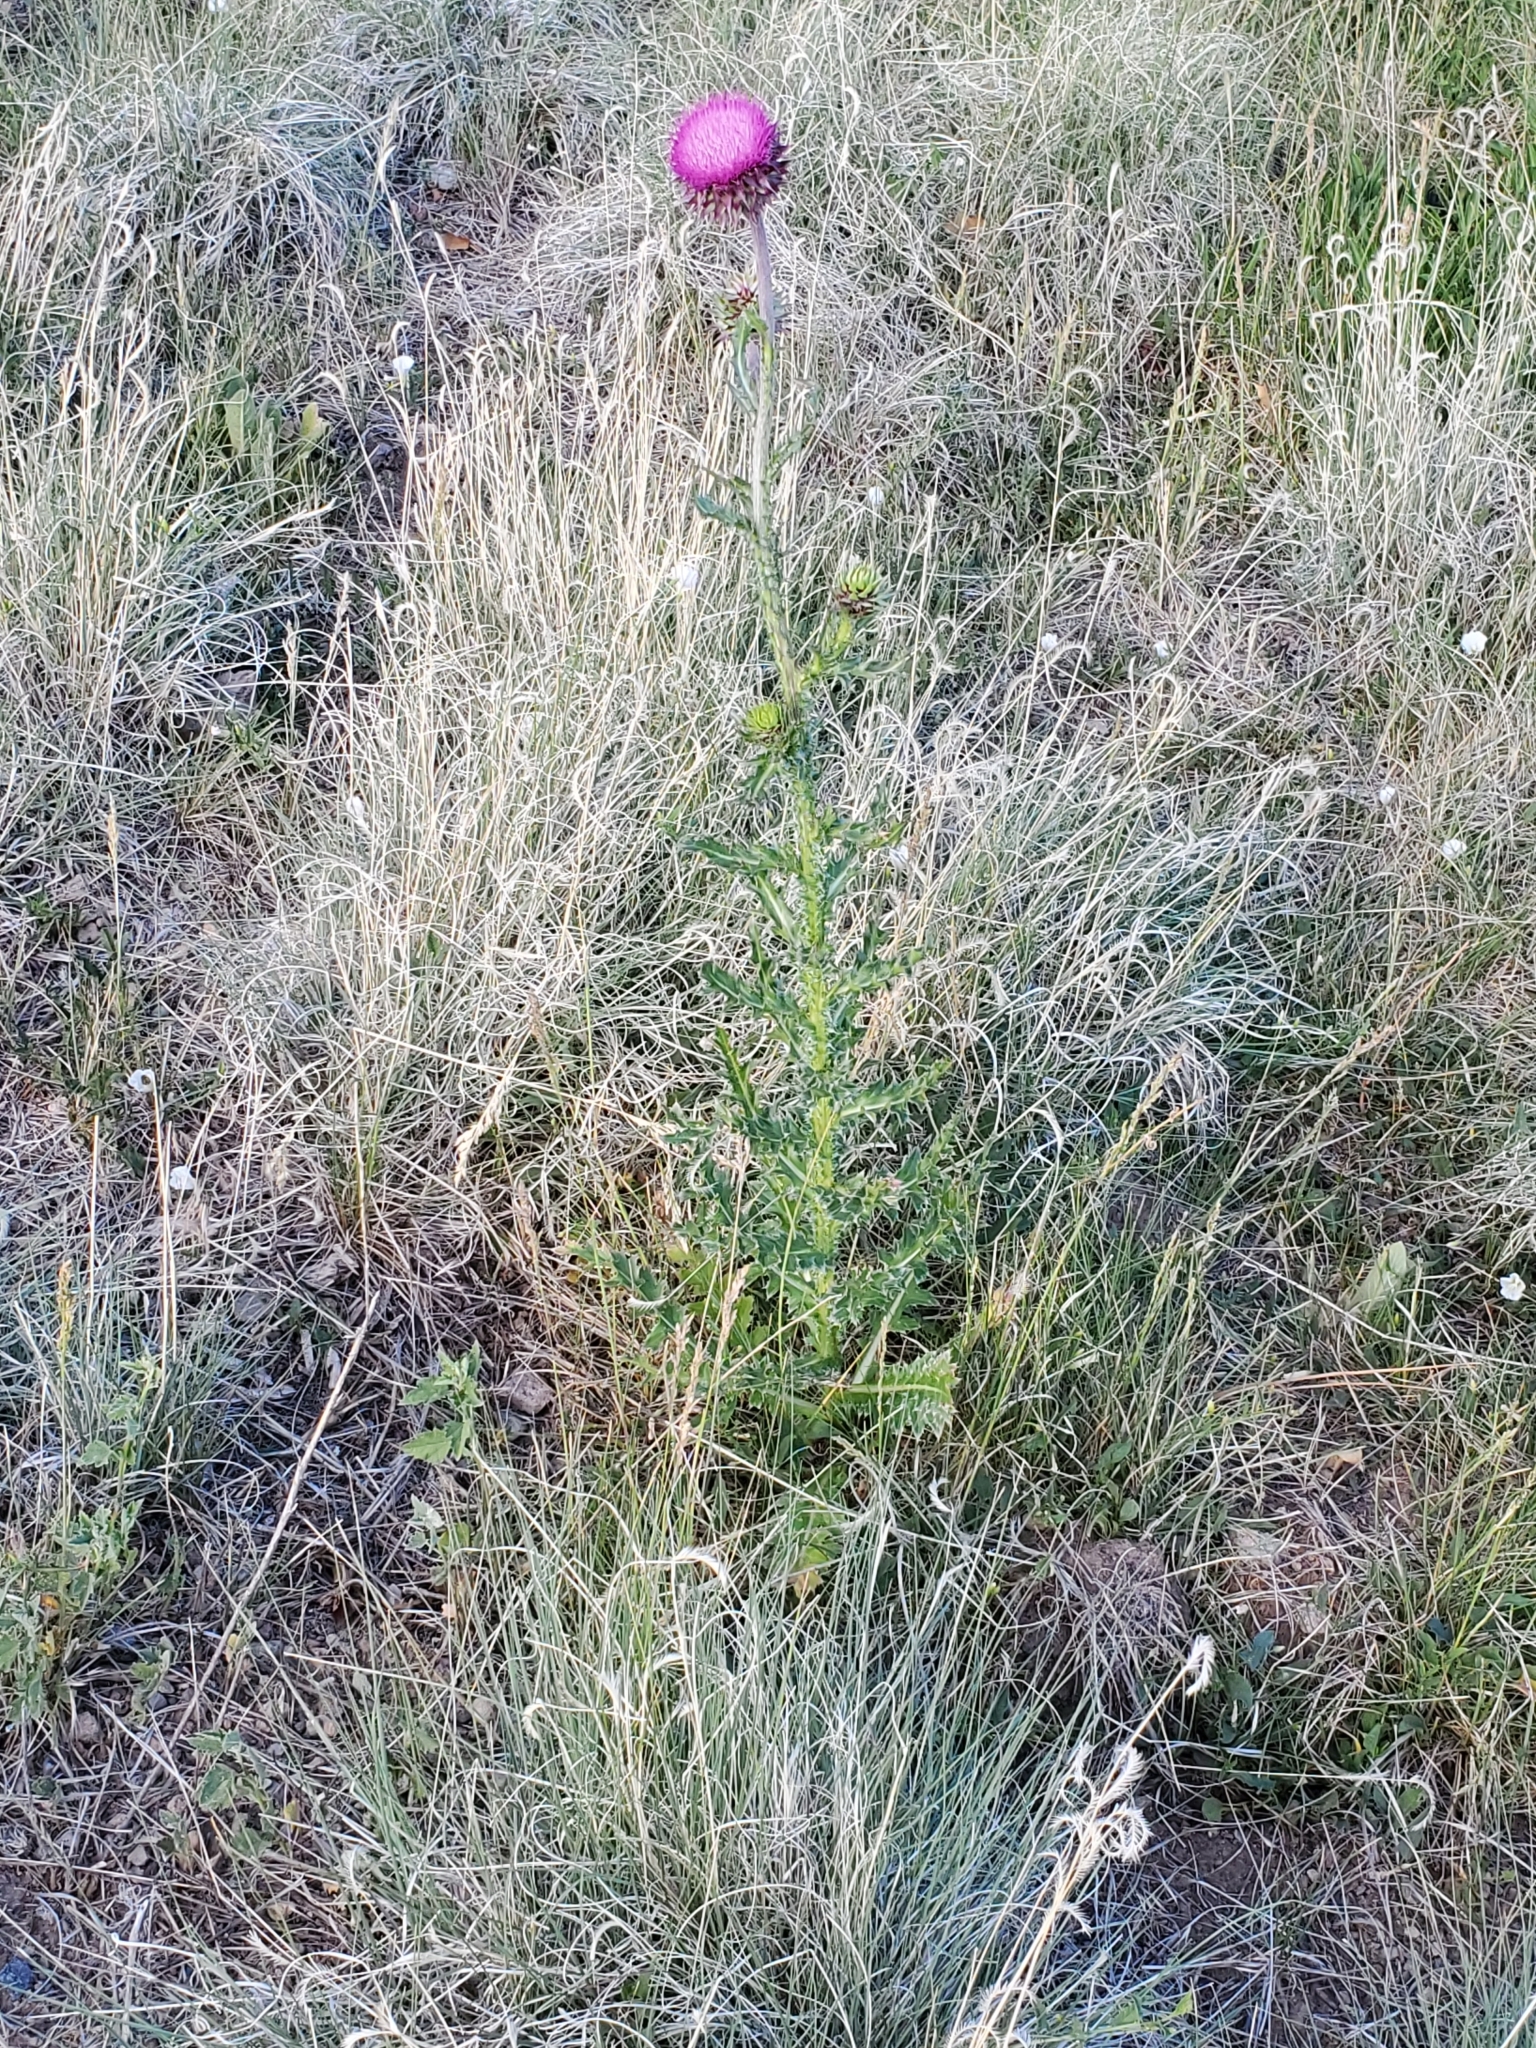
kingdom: Plantae
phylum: Tracheophyta
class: Magnoliopsida
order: Asterales
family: Asteraceae
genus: Carduus
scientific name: Carduus nutans
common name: Musk thistle
